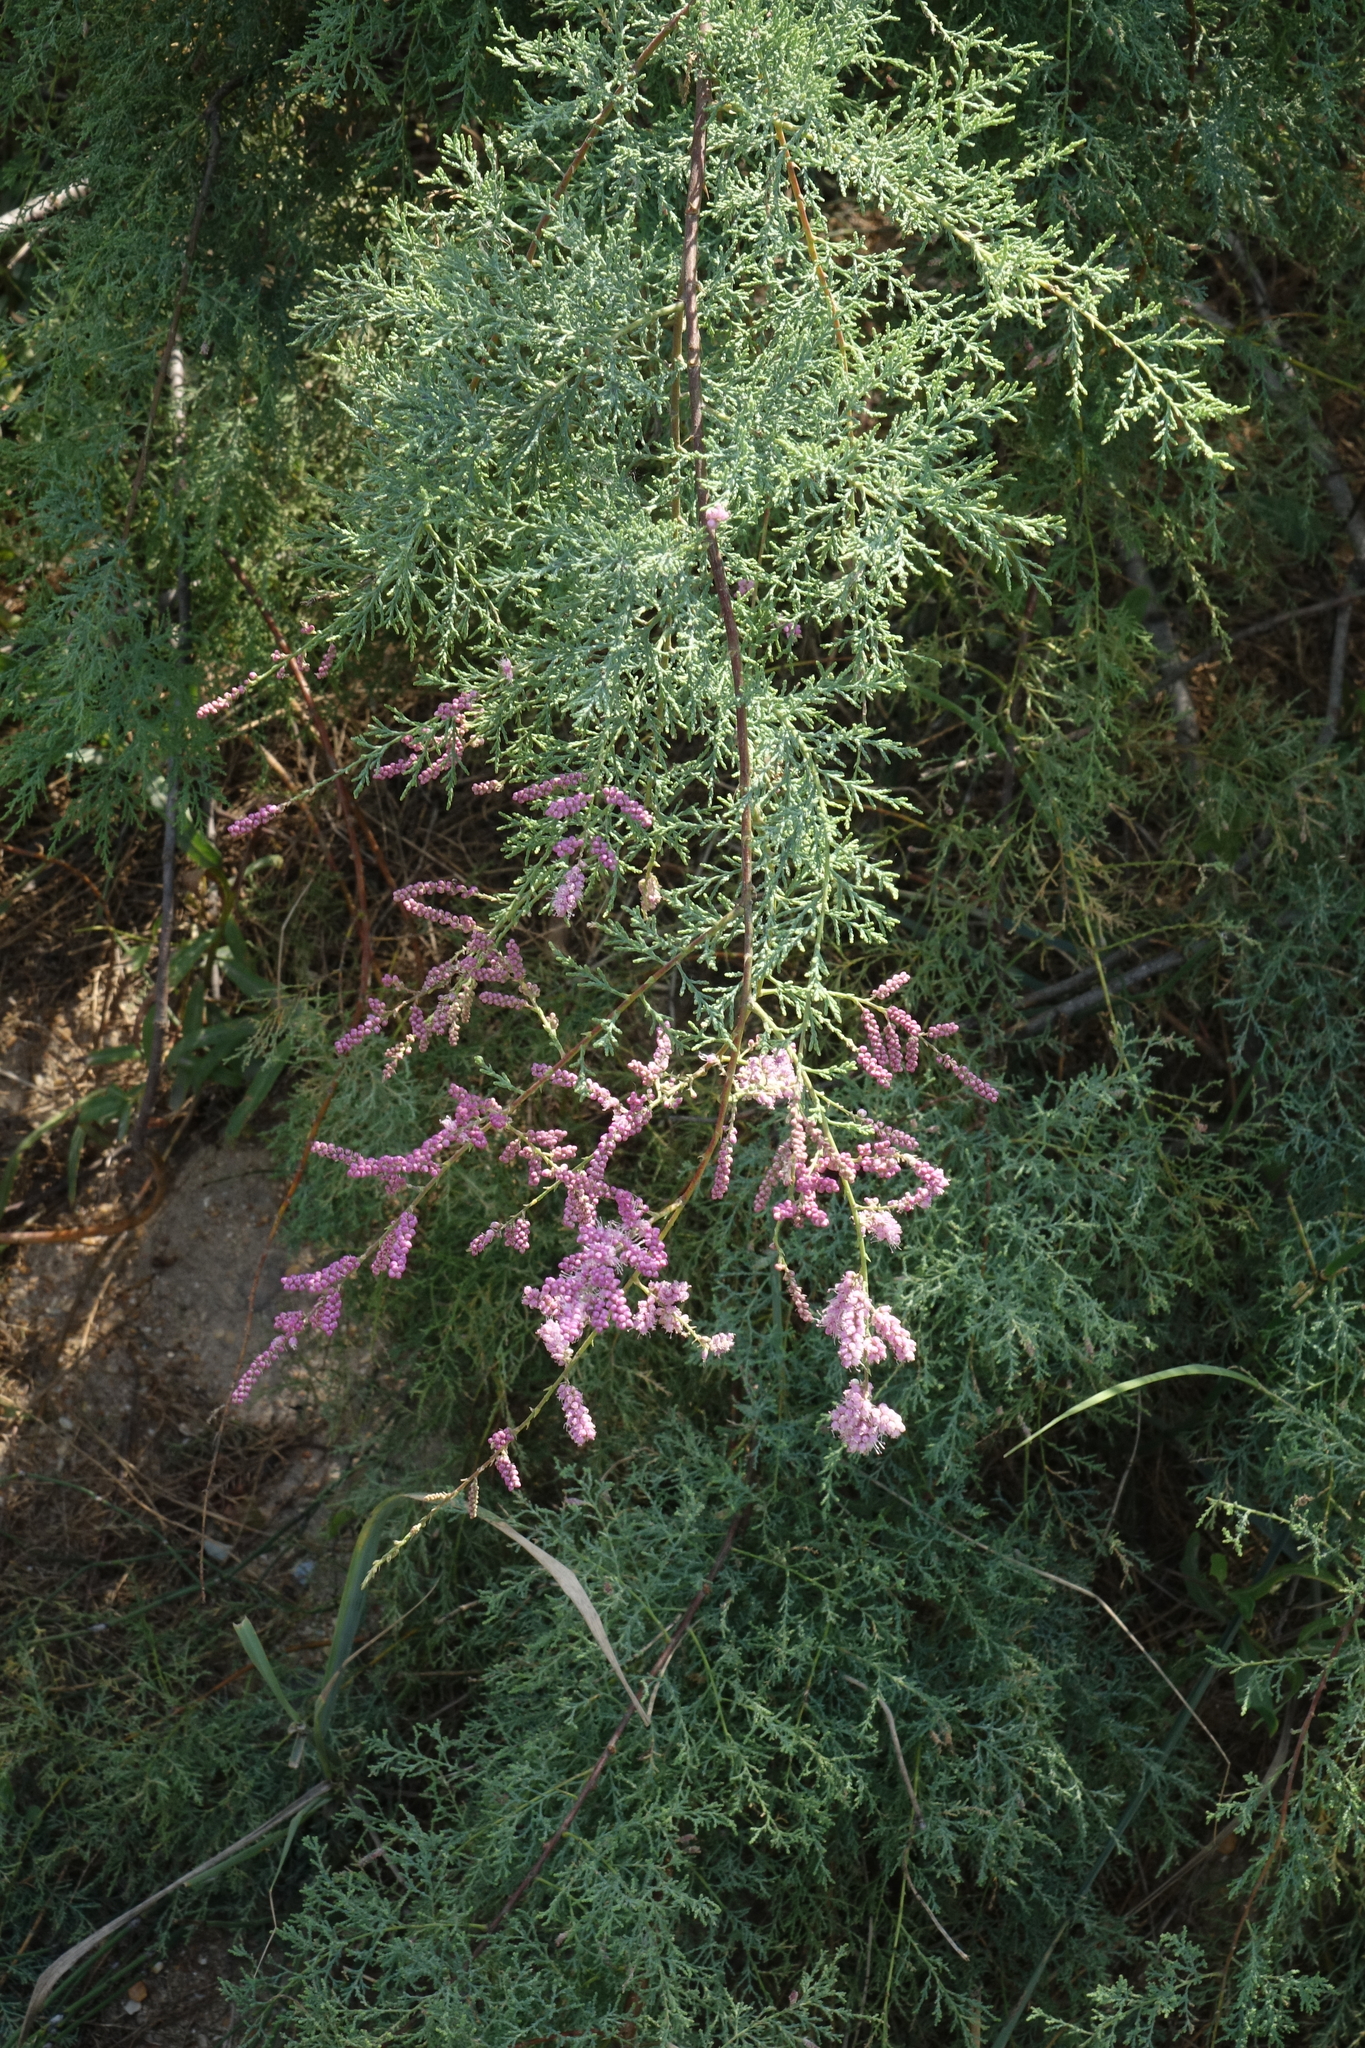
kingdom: Plantae
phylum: Tracheophyta
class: Magnoliopsida
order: Caryophyllales
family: Tamaricaceae
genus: Tamarix
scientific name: Tamarix ramosissima
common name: Pink tamarisk
